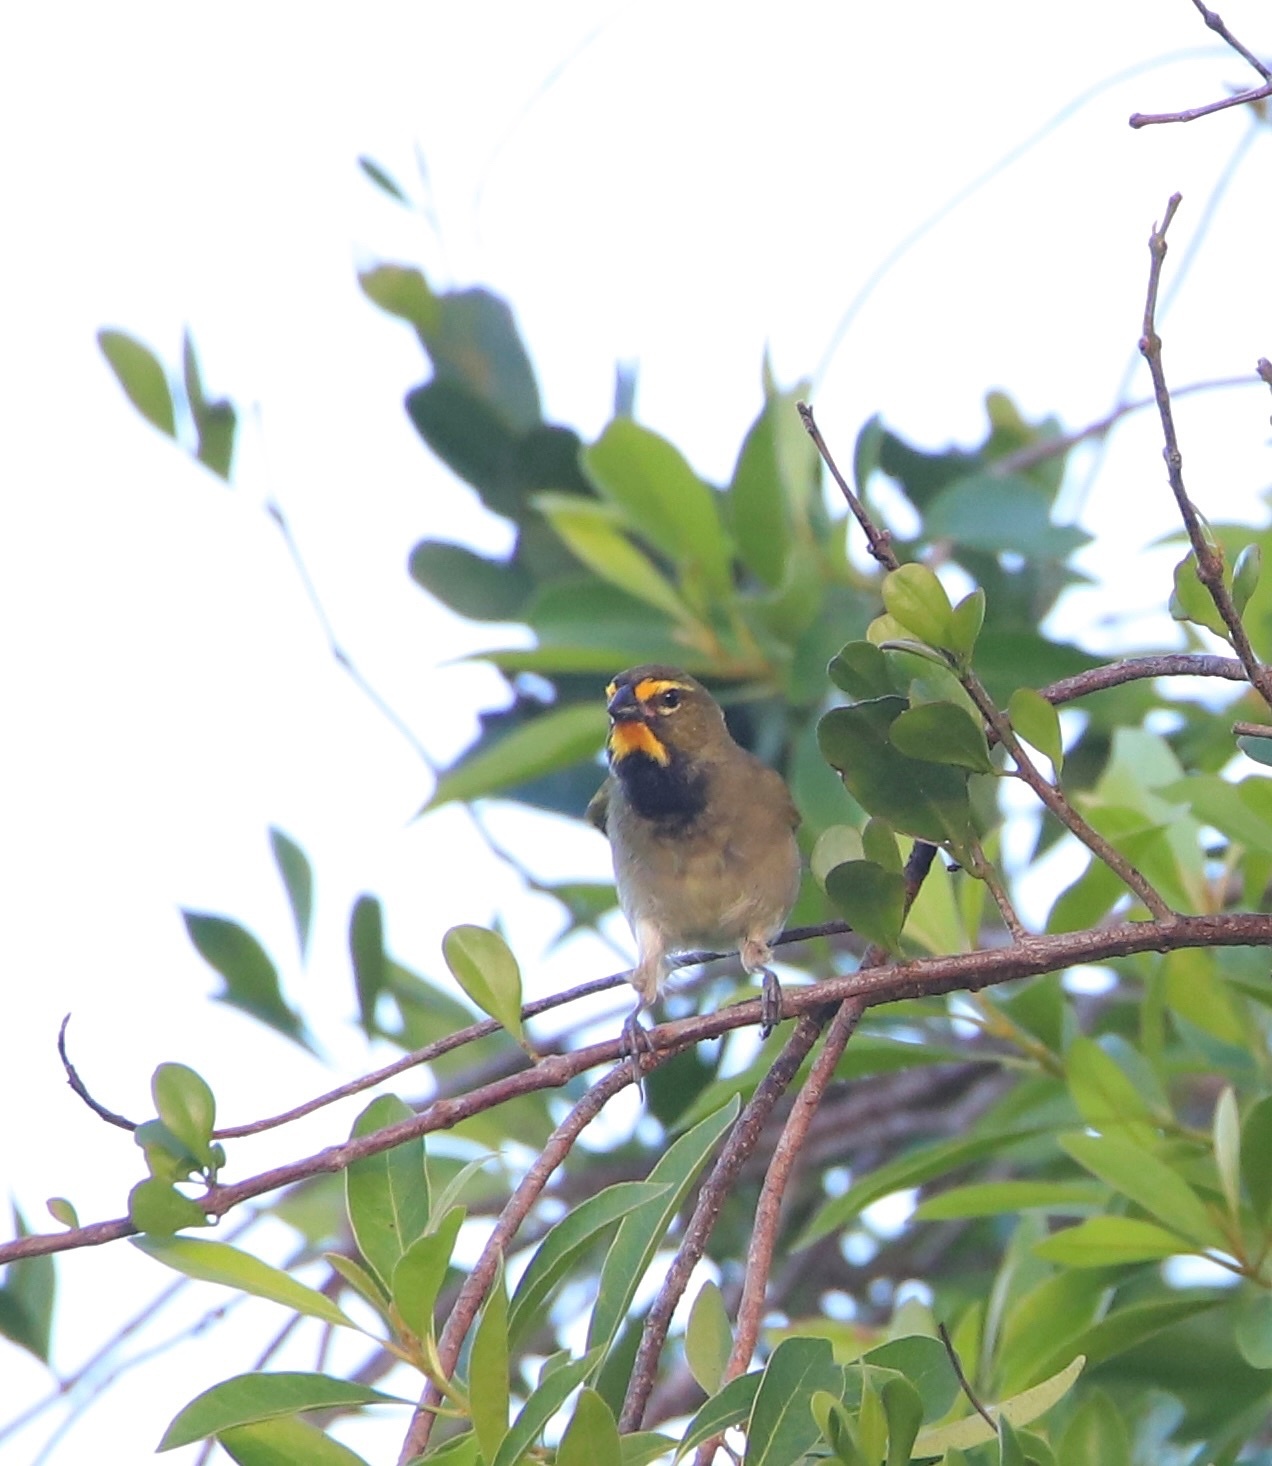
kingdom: Animalia
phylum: Chordata
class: Aves
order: Passeriformes
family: Thraupidae
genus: Tiaris
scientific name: Tiaris olivaceus
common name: Yellow-faced grassquit
